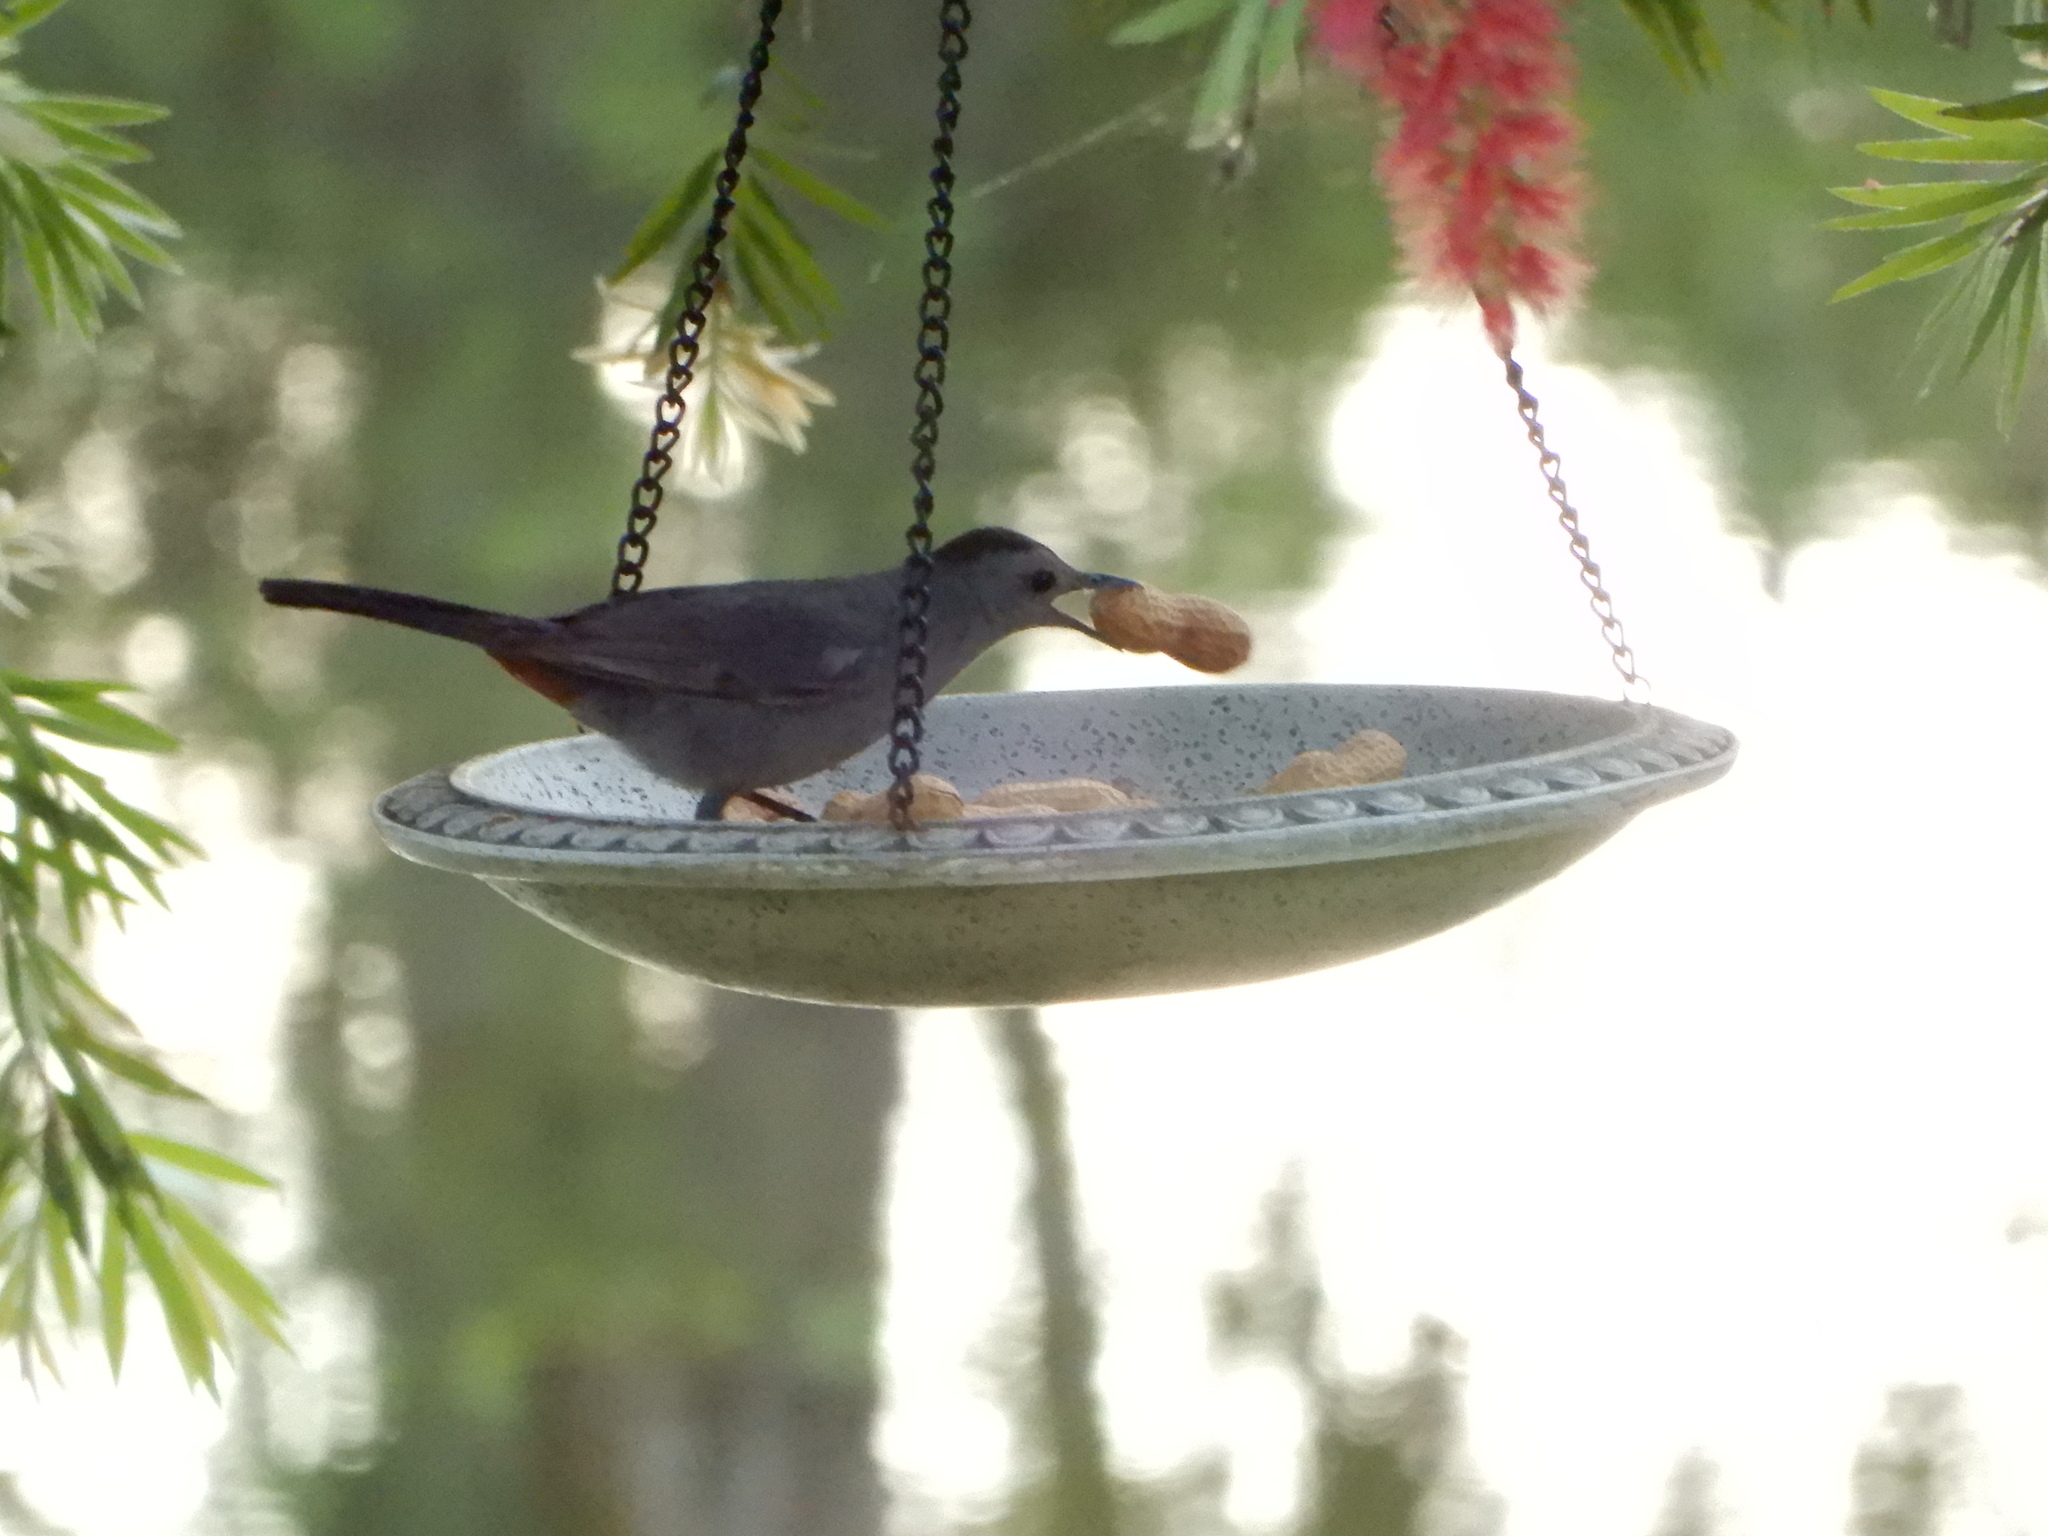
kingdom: Animalia
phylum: Chordata
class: Aves
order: Passeriformes
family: Mimidae
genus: Dumetella
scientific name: Dumetella carolinensis
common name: Gray catbird
